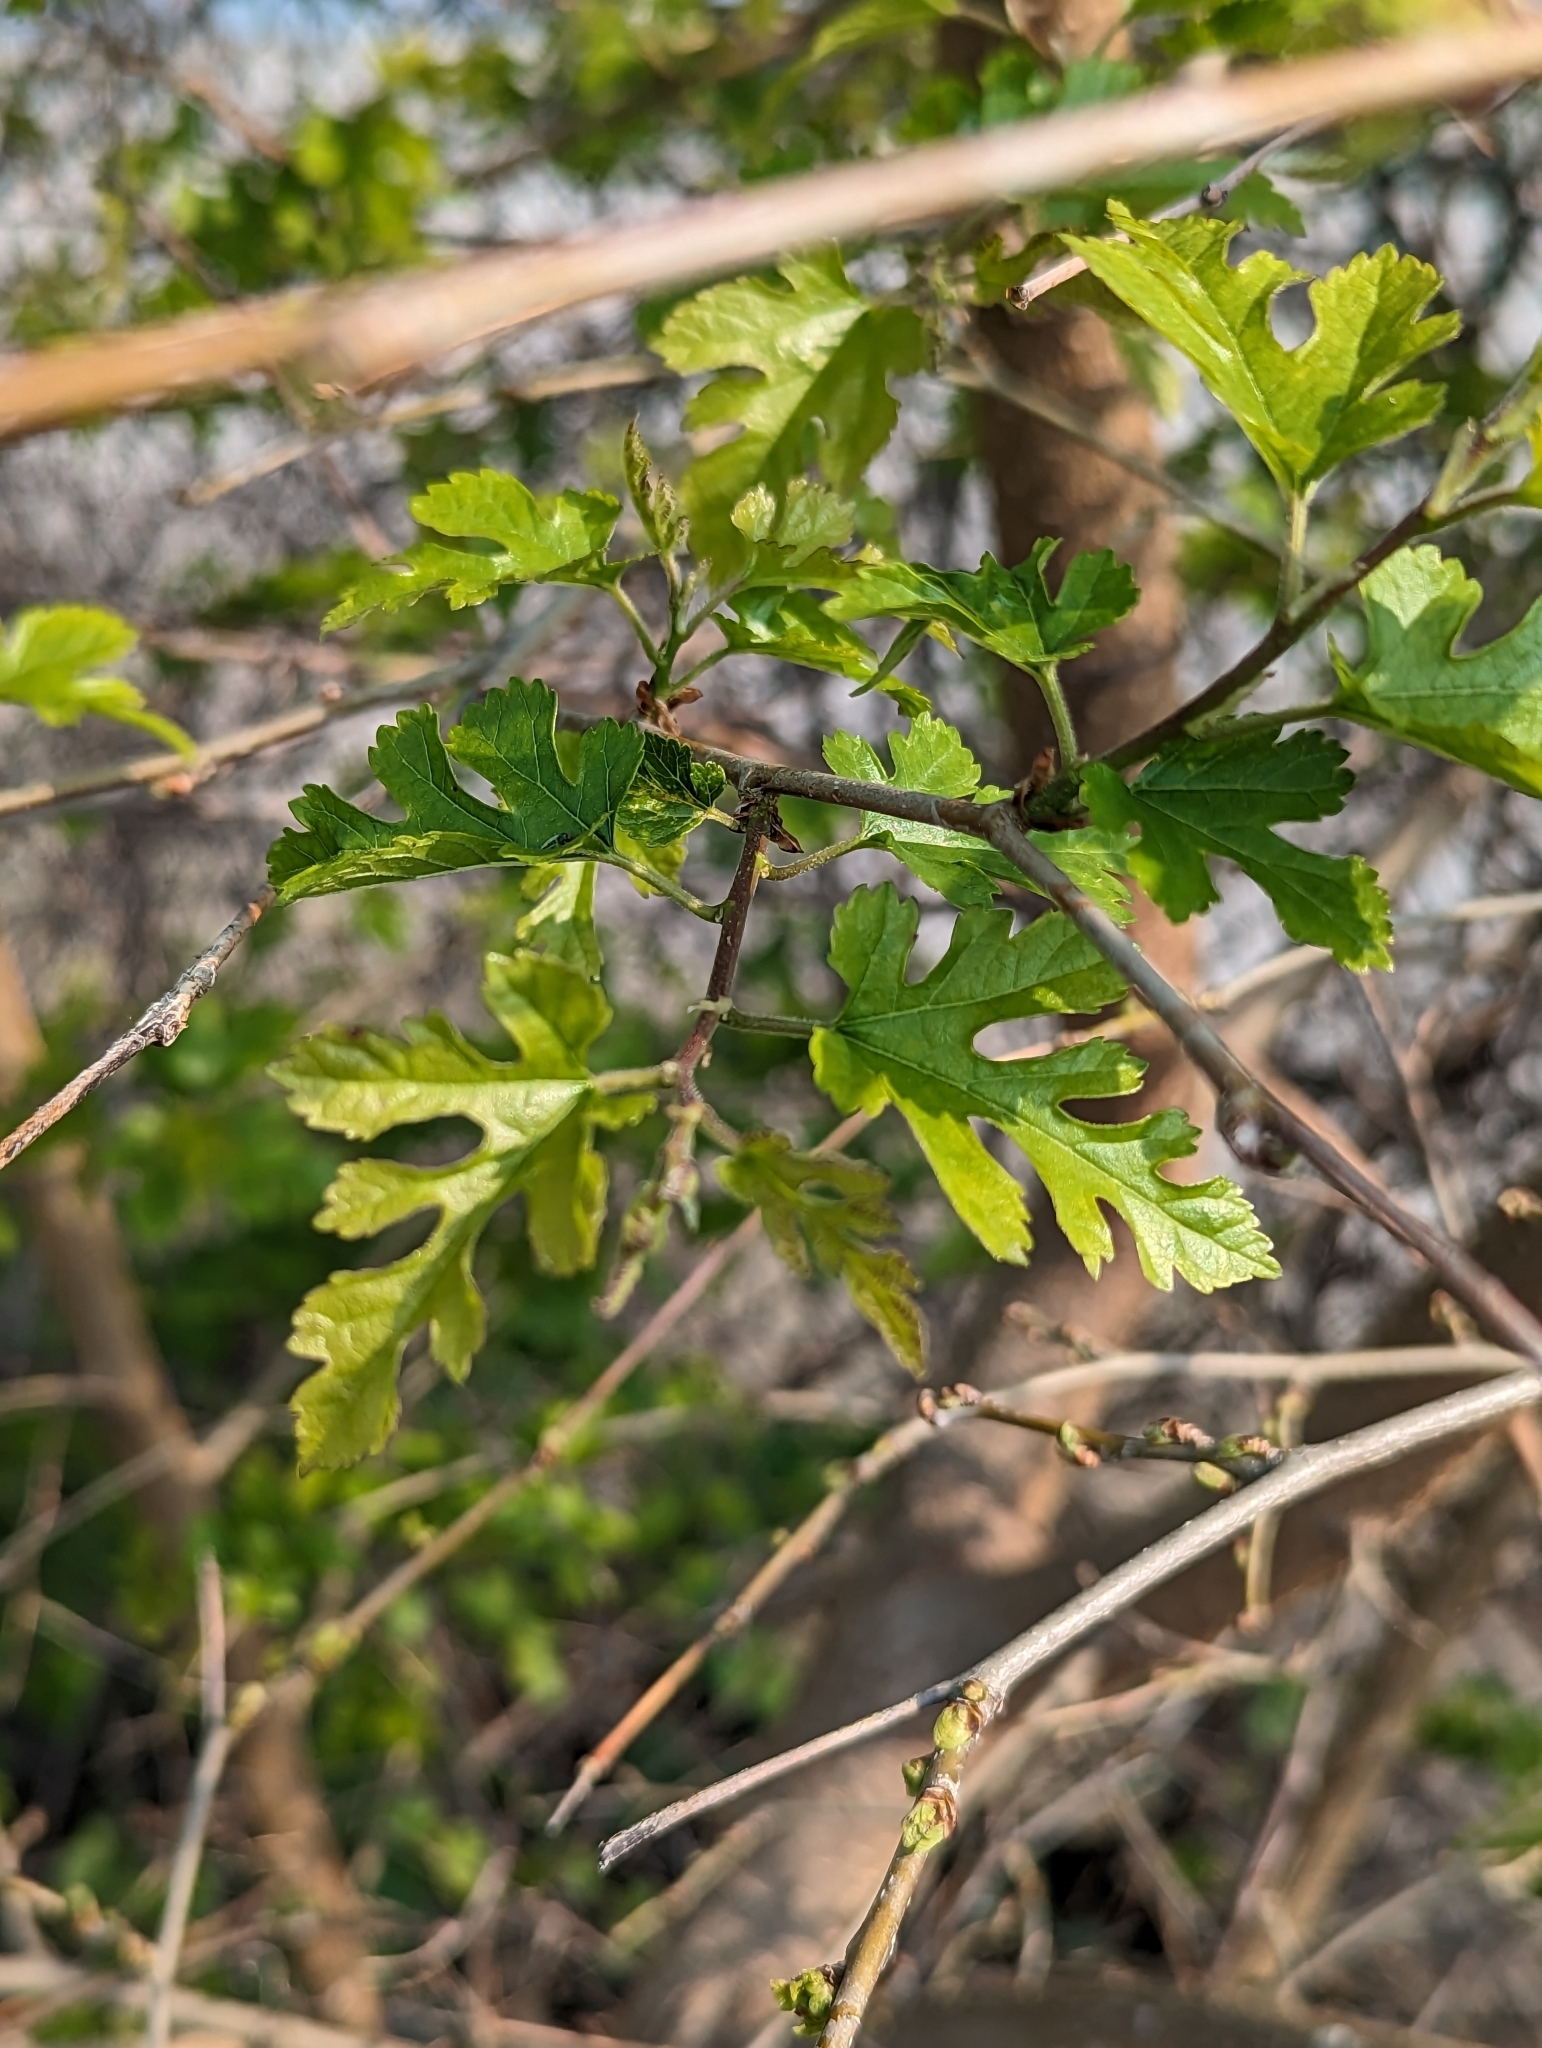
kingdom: Plantae
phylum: Tracheophyta
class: Magnoliopsida
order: Rosales
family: Moraceae
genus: Morus
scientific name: Morus alba
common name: White mulberry
